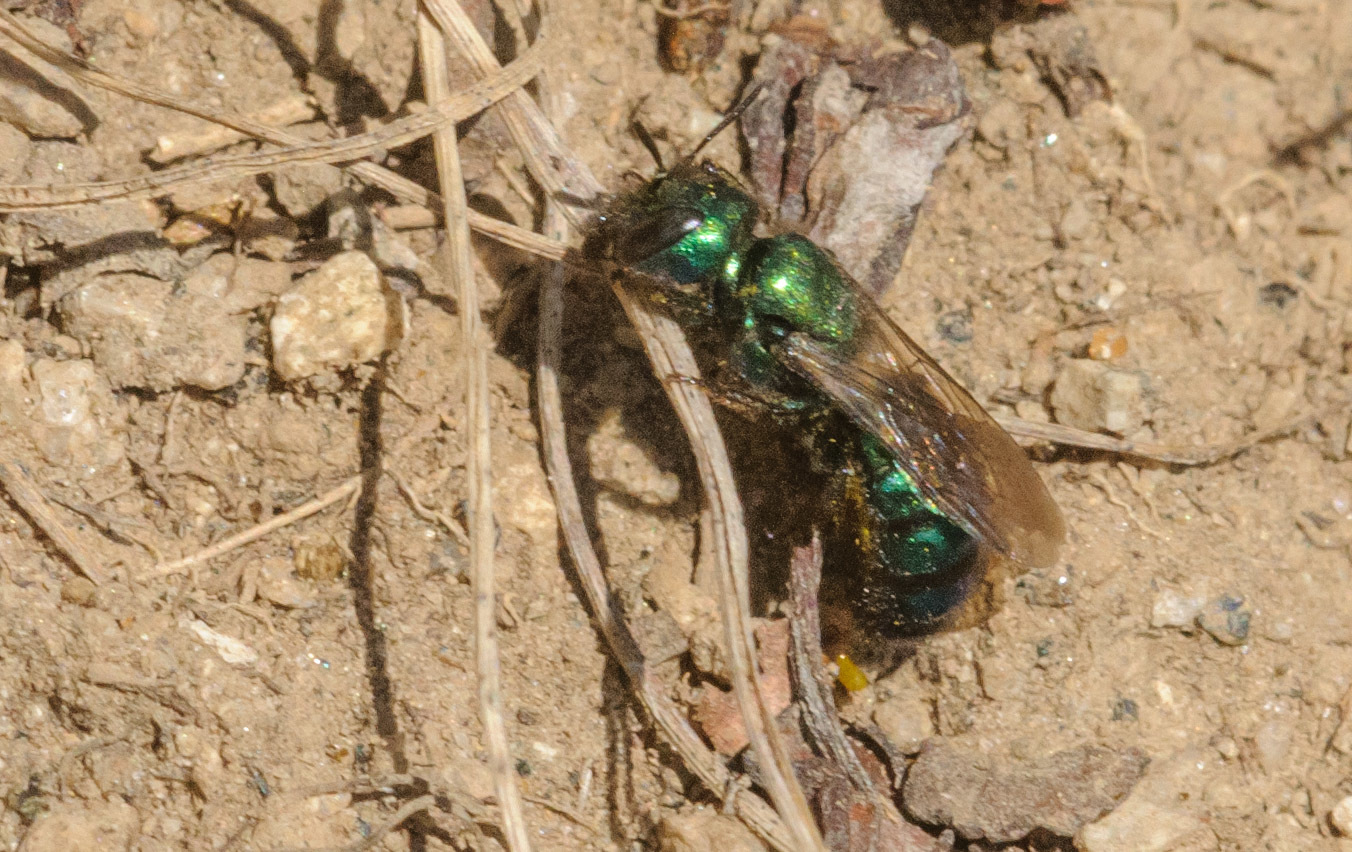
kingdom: Animalia
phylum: Arthropoda
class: Insecta
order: Hymenoptera
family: Megachilidae
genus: Hoplitis
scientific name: Hoplitis fulgida
